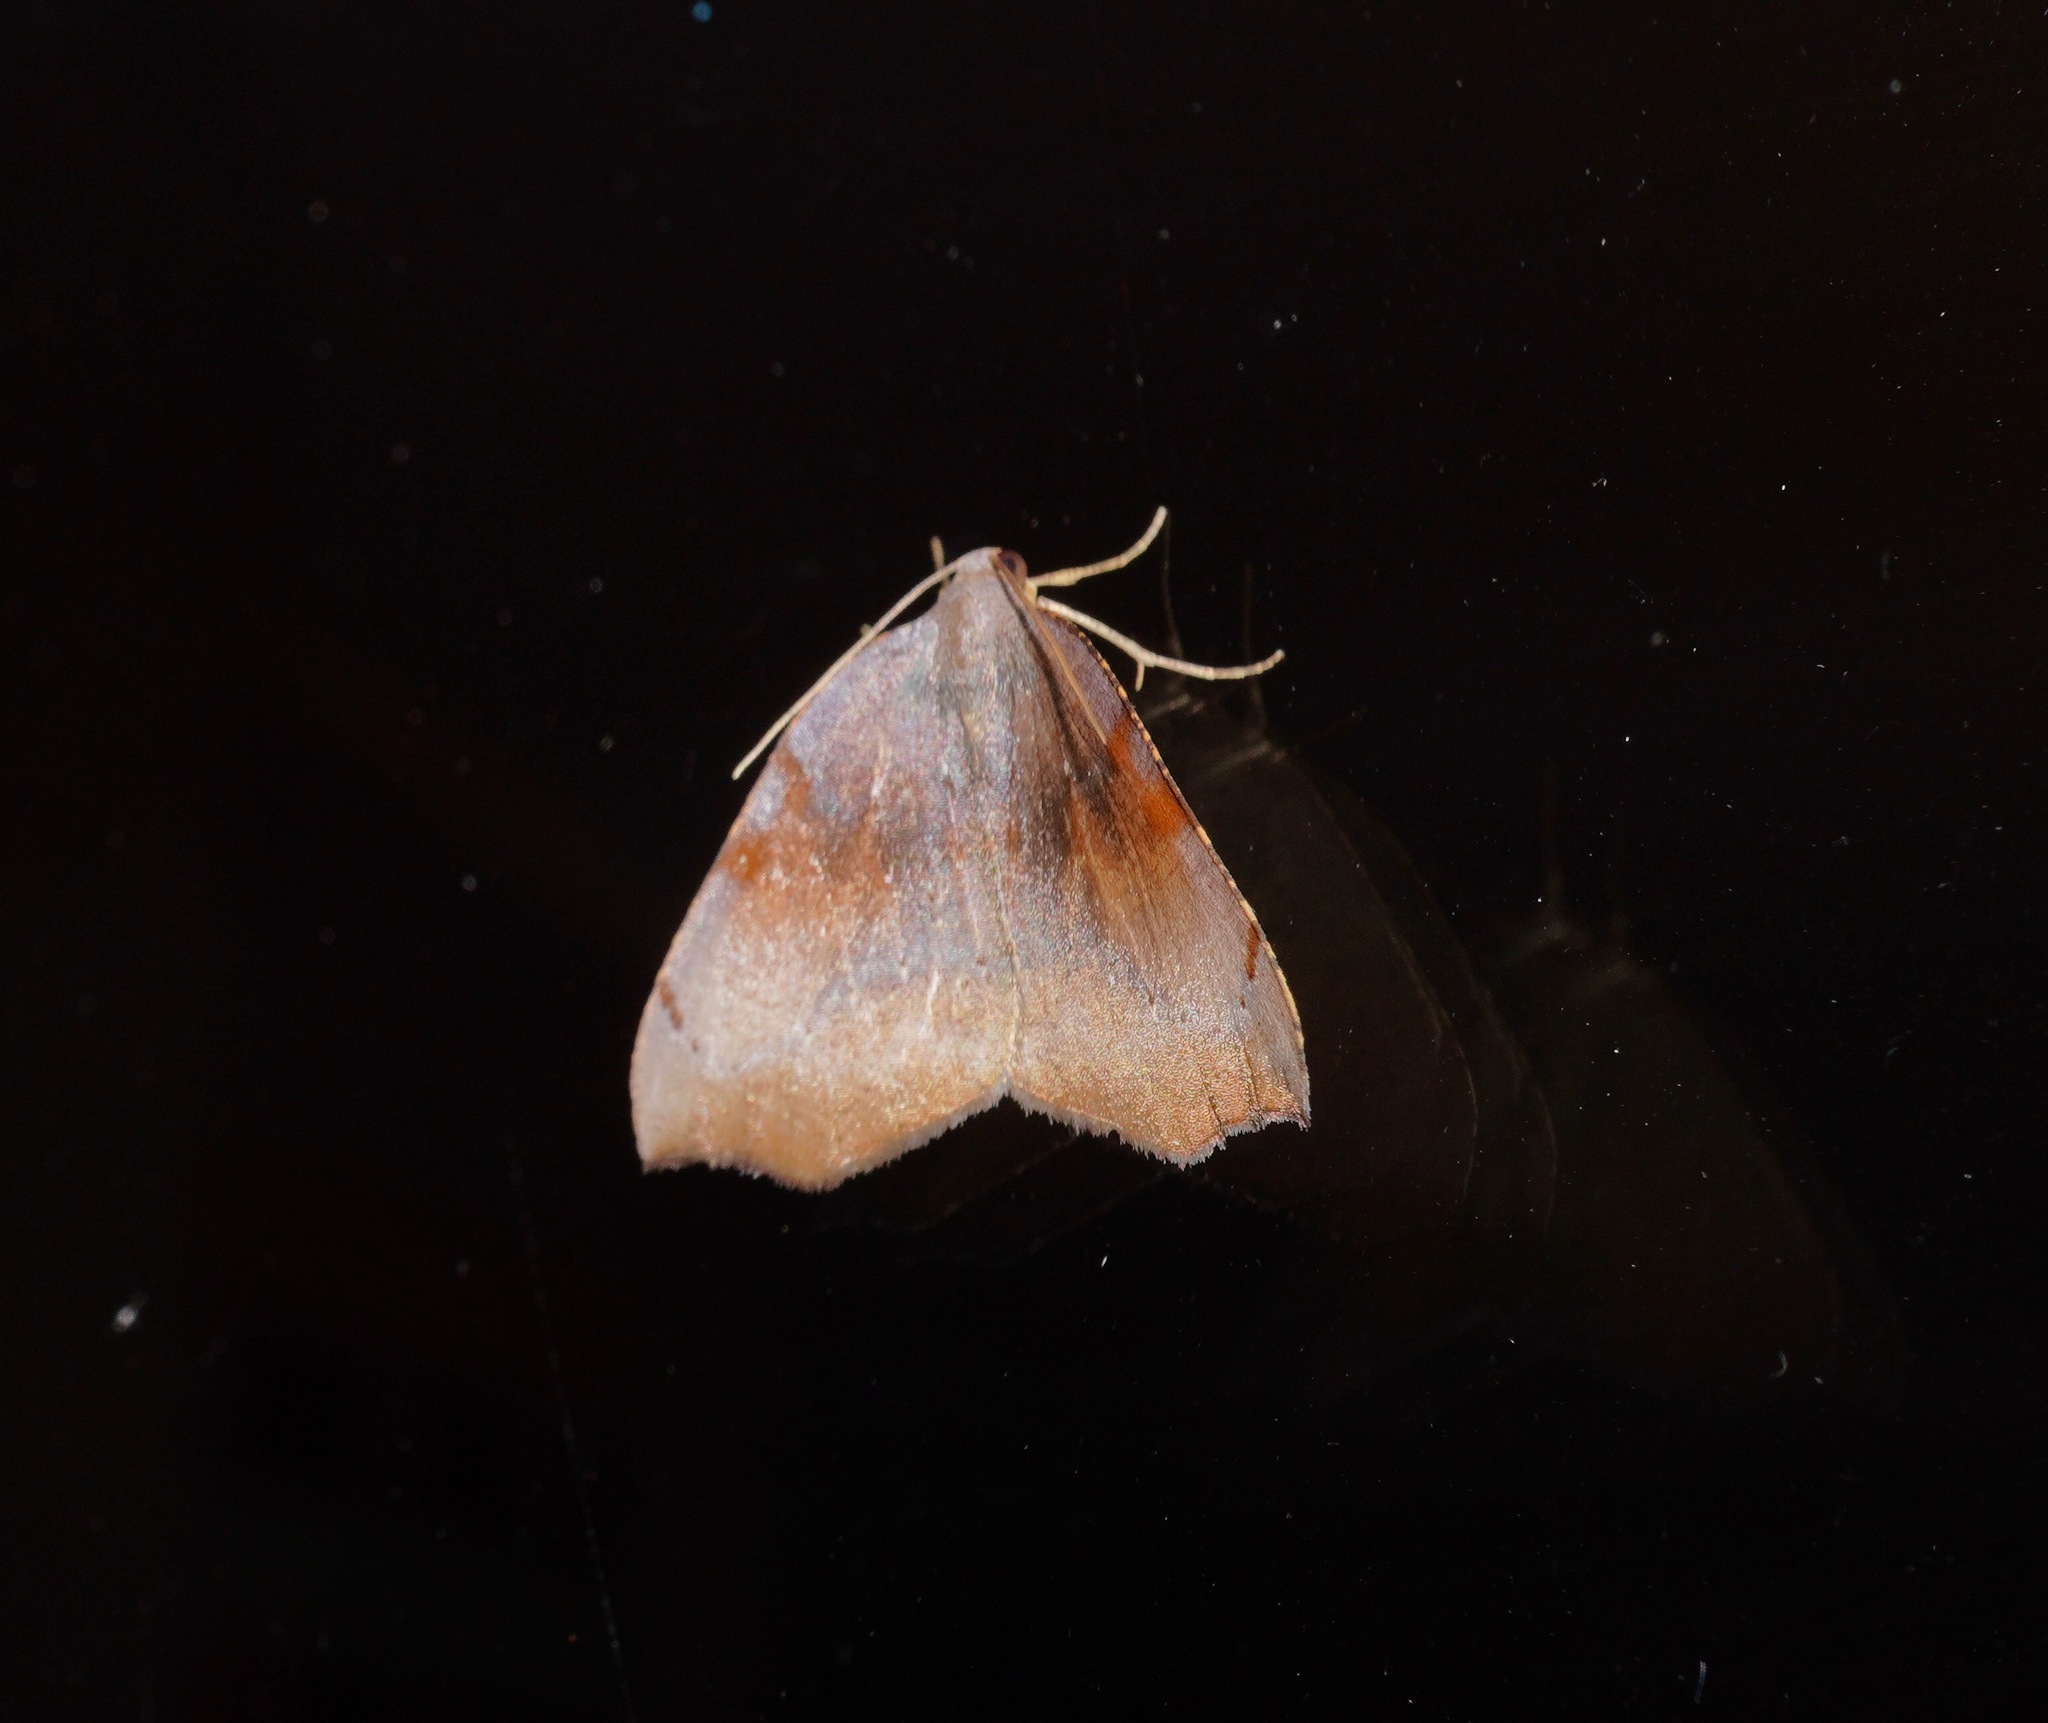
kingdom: Animalia
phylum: Arthropoda
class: Insecta
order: Lepidoptera
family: Geometridae
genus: Sestra
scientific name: Sestra flexata
